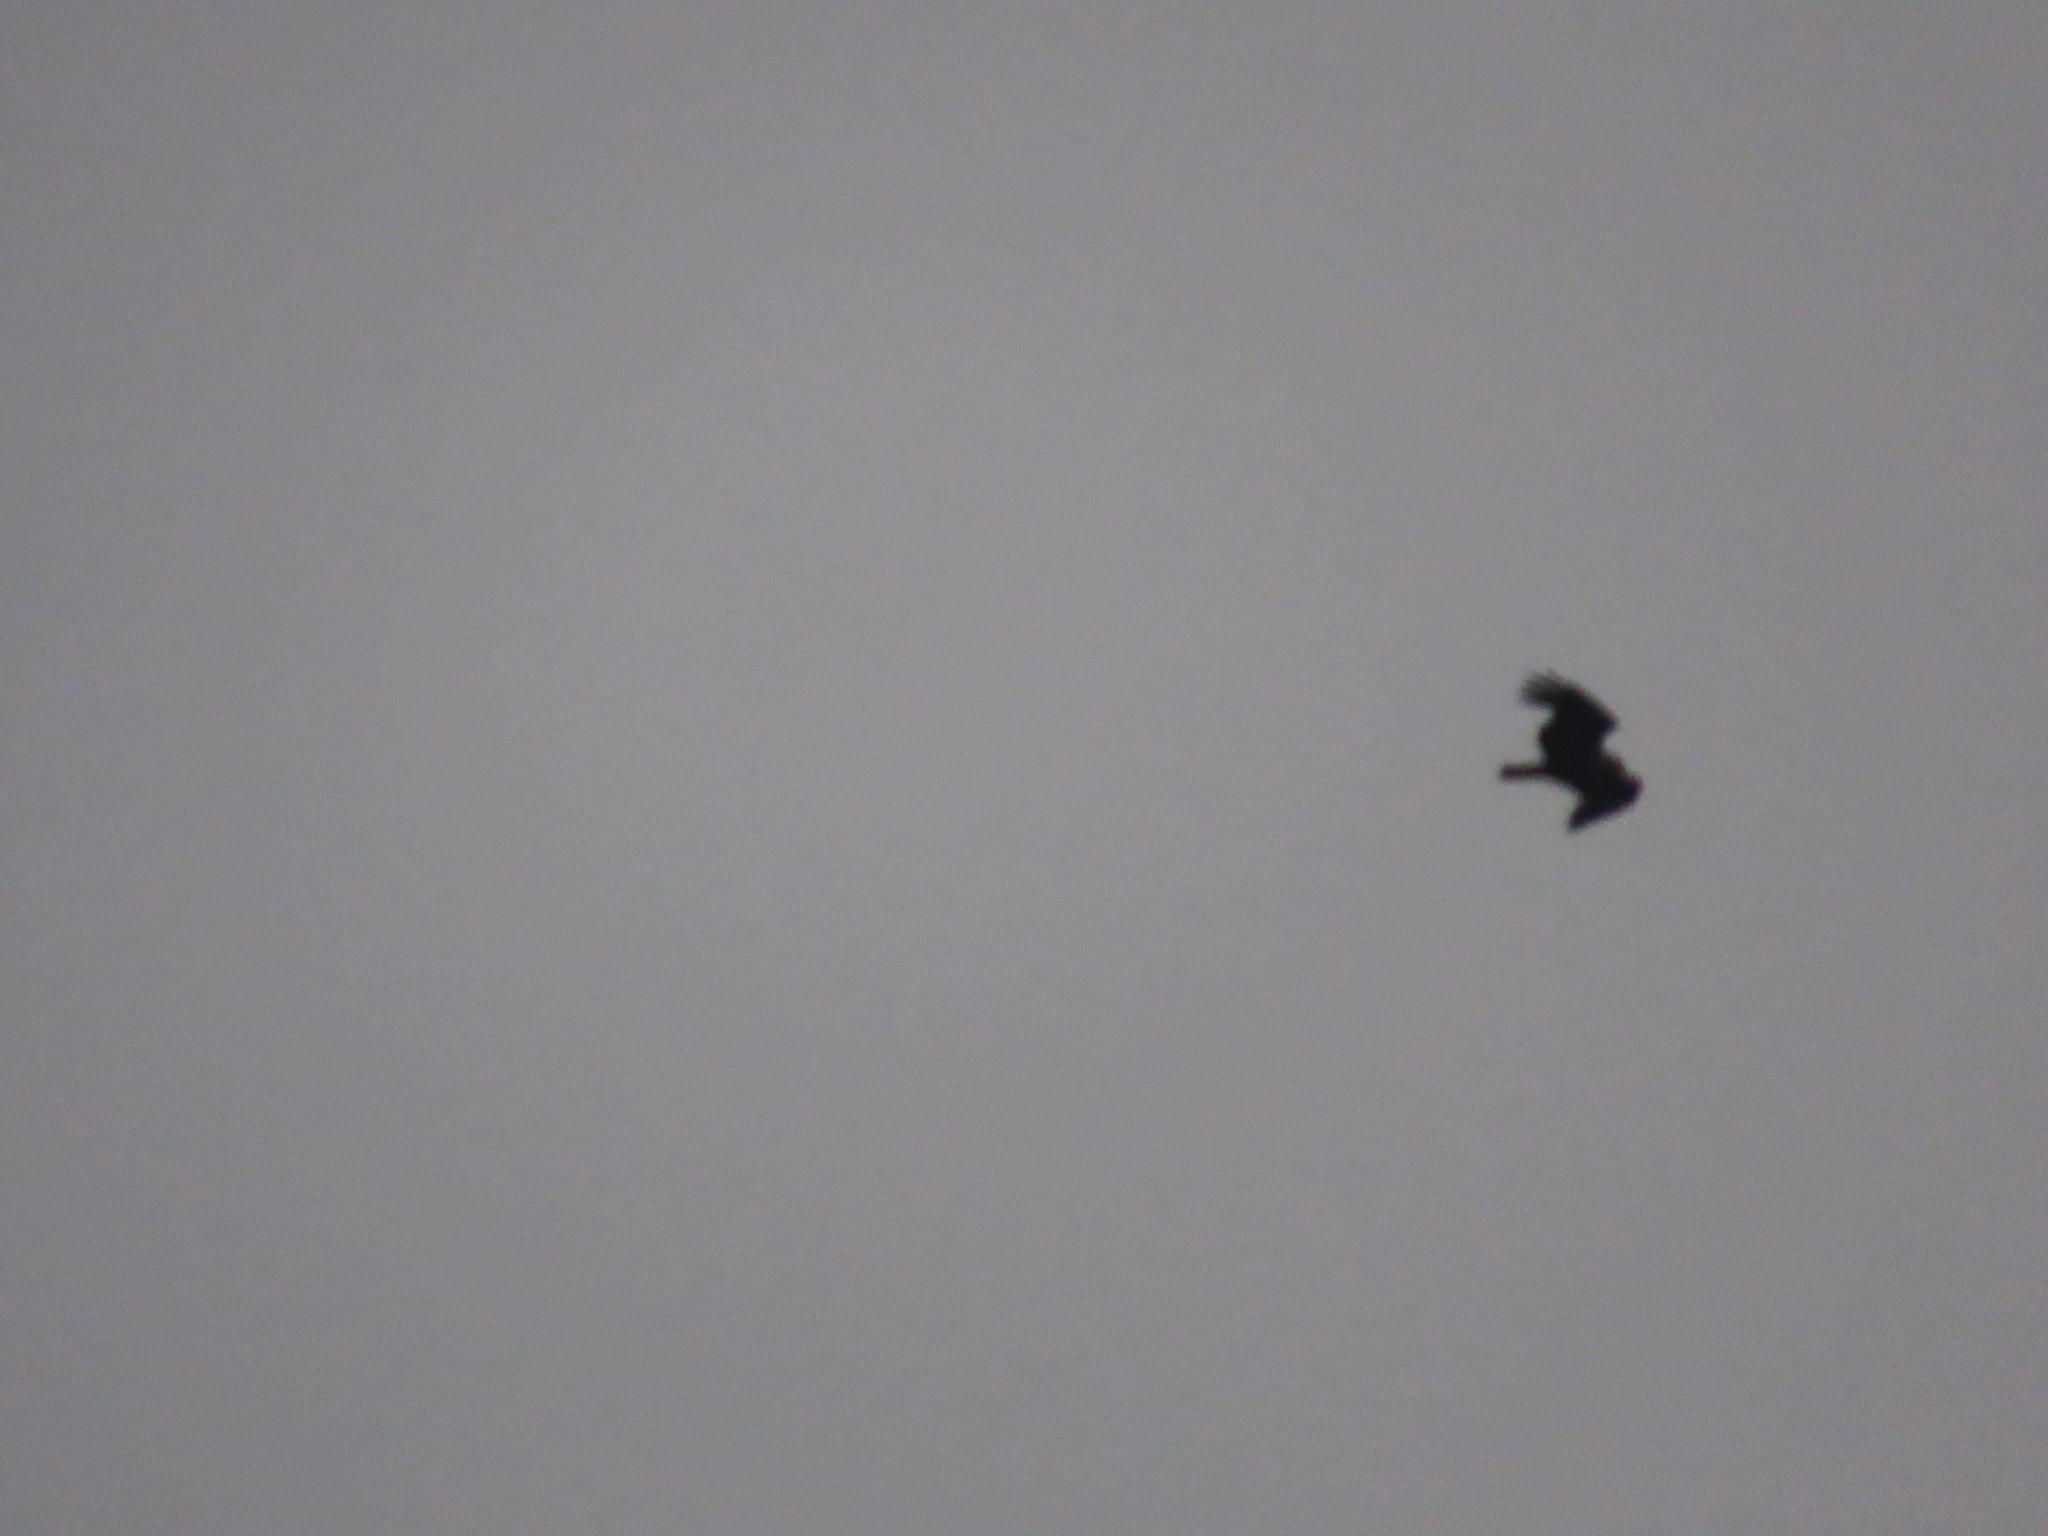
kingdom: Animalia
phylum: Chordata
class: Aves
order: Accipitriformes
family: Accipitridae
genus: Haliastur
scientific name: Haliastur indus
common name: Brahminy kite
